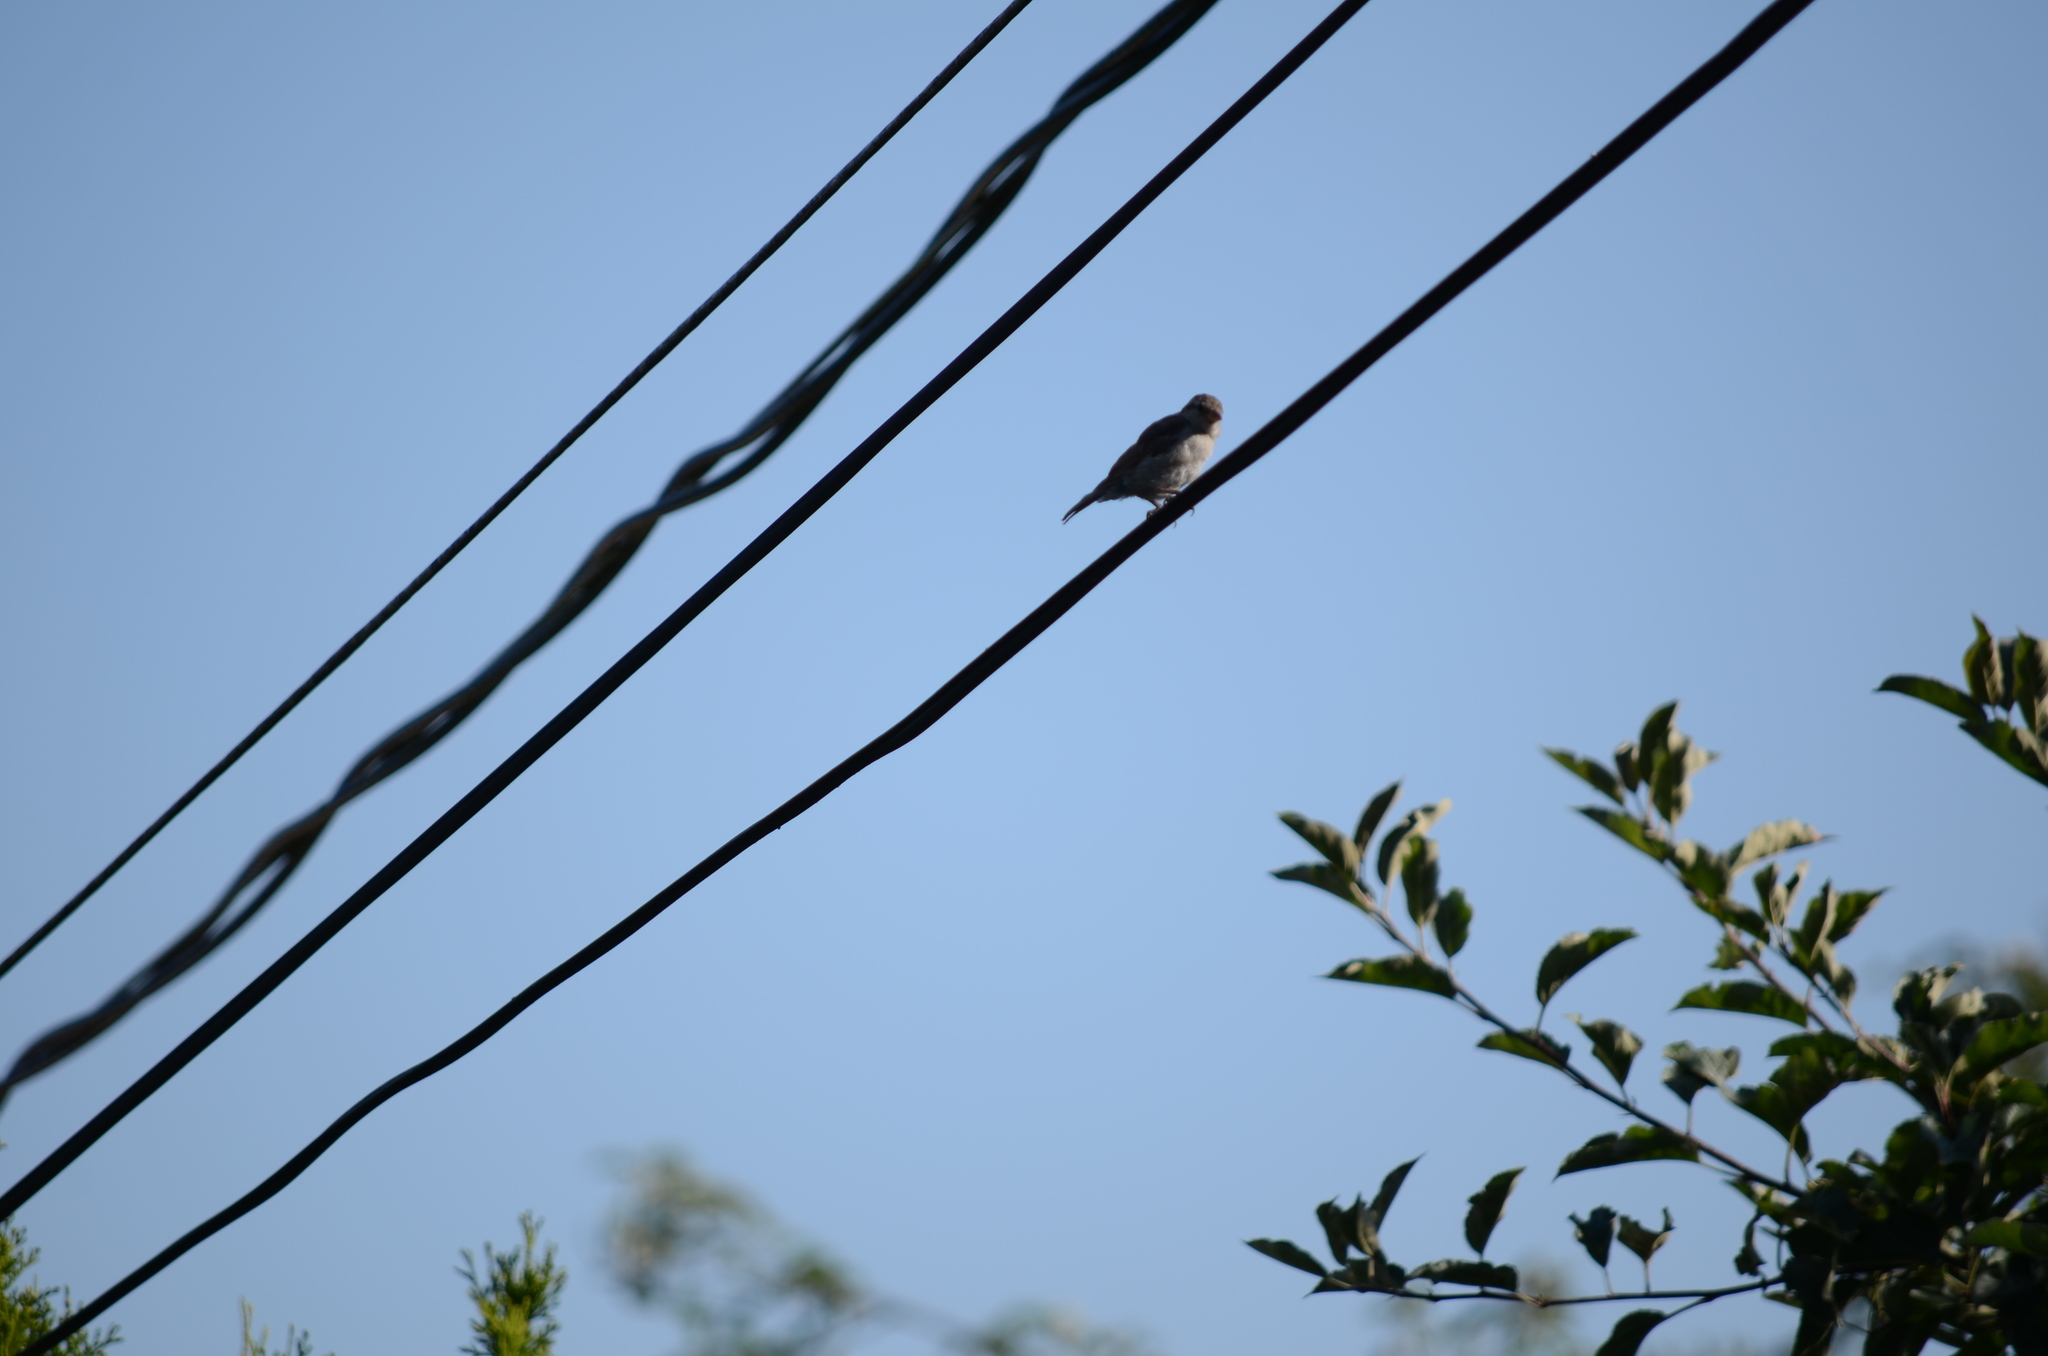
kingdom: Animalia
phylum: Chordata
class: Aves
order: Passeriformes
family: Passeridae
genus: Passer
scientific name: Passer domesticus
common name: House sparrow
